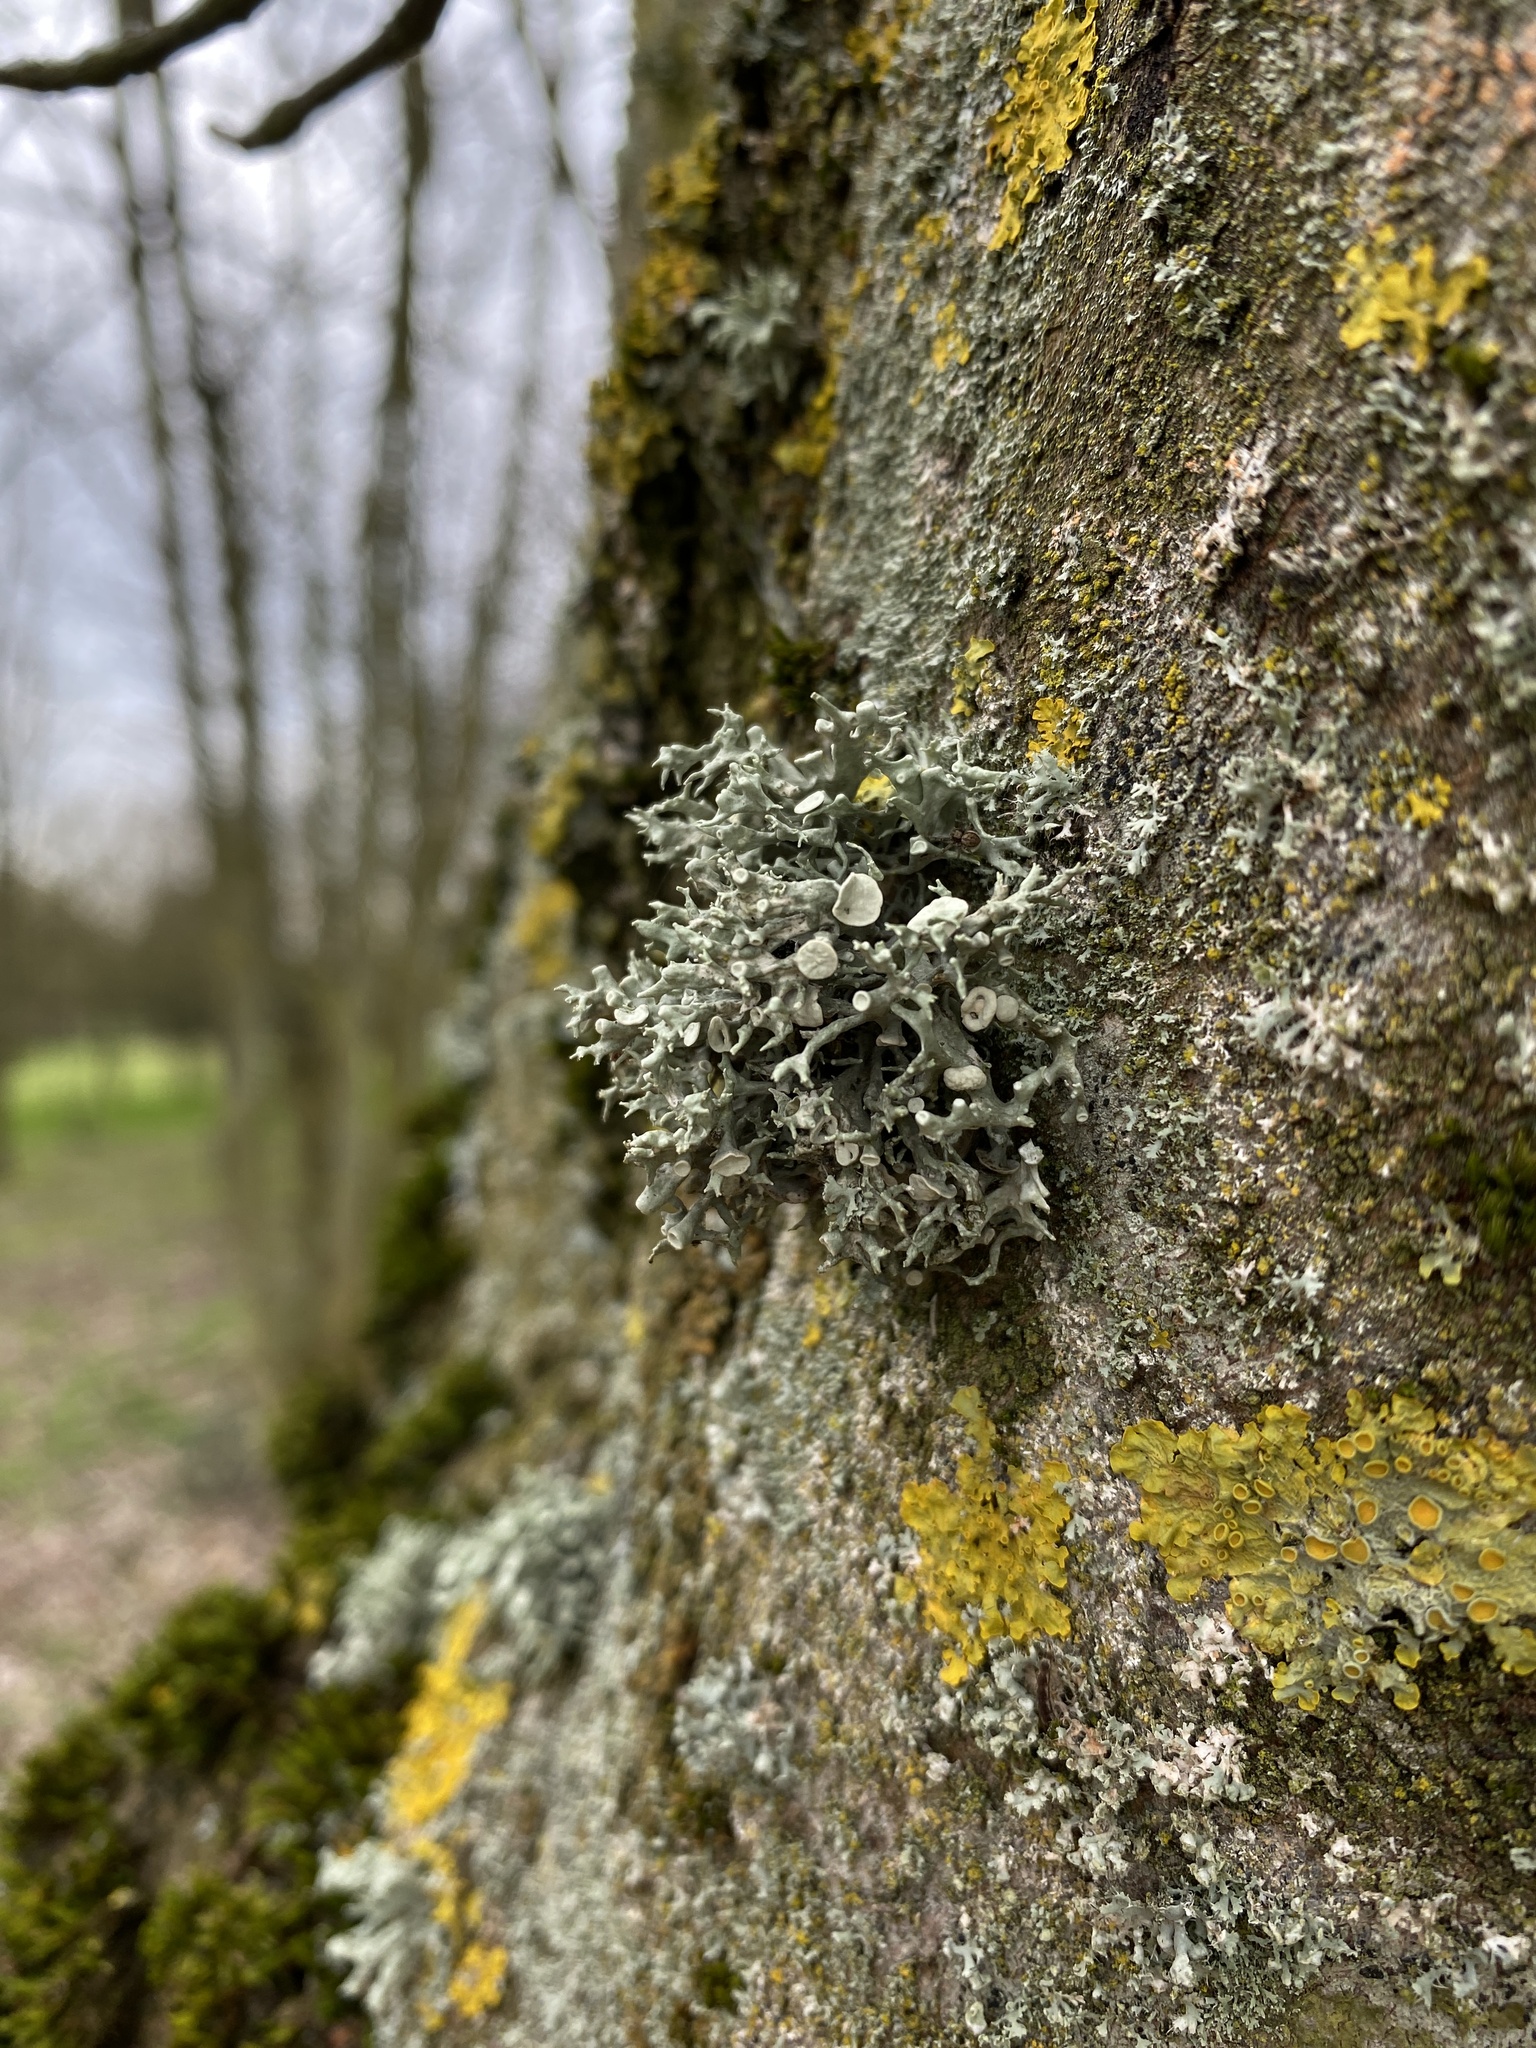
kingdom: Fungi
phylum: Ascomycota
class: Lecanoromycetes
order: Lecanorales
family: Ramalinaceae
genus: Ramalina
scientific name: Ramalina fastigiata
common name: Dotted ribbon lichen
